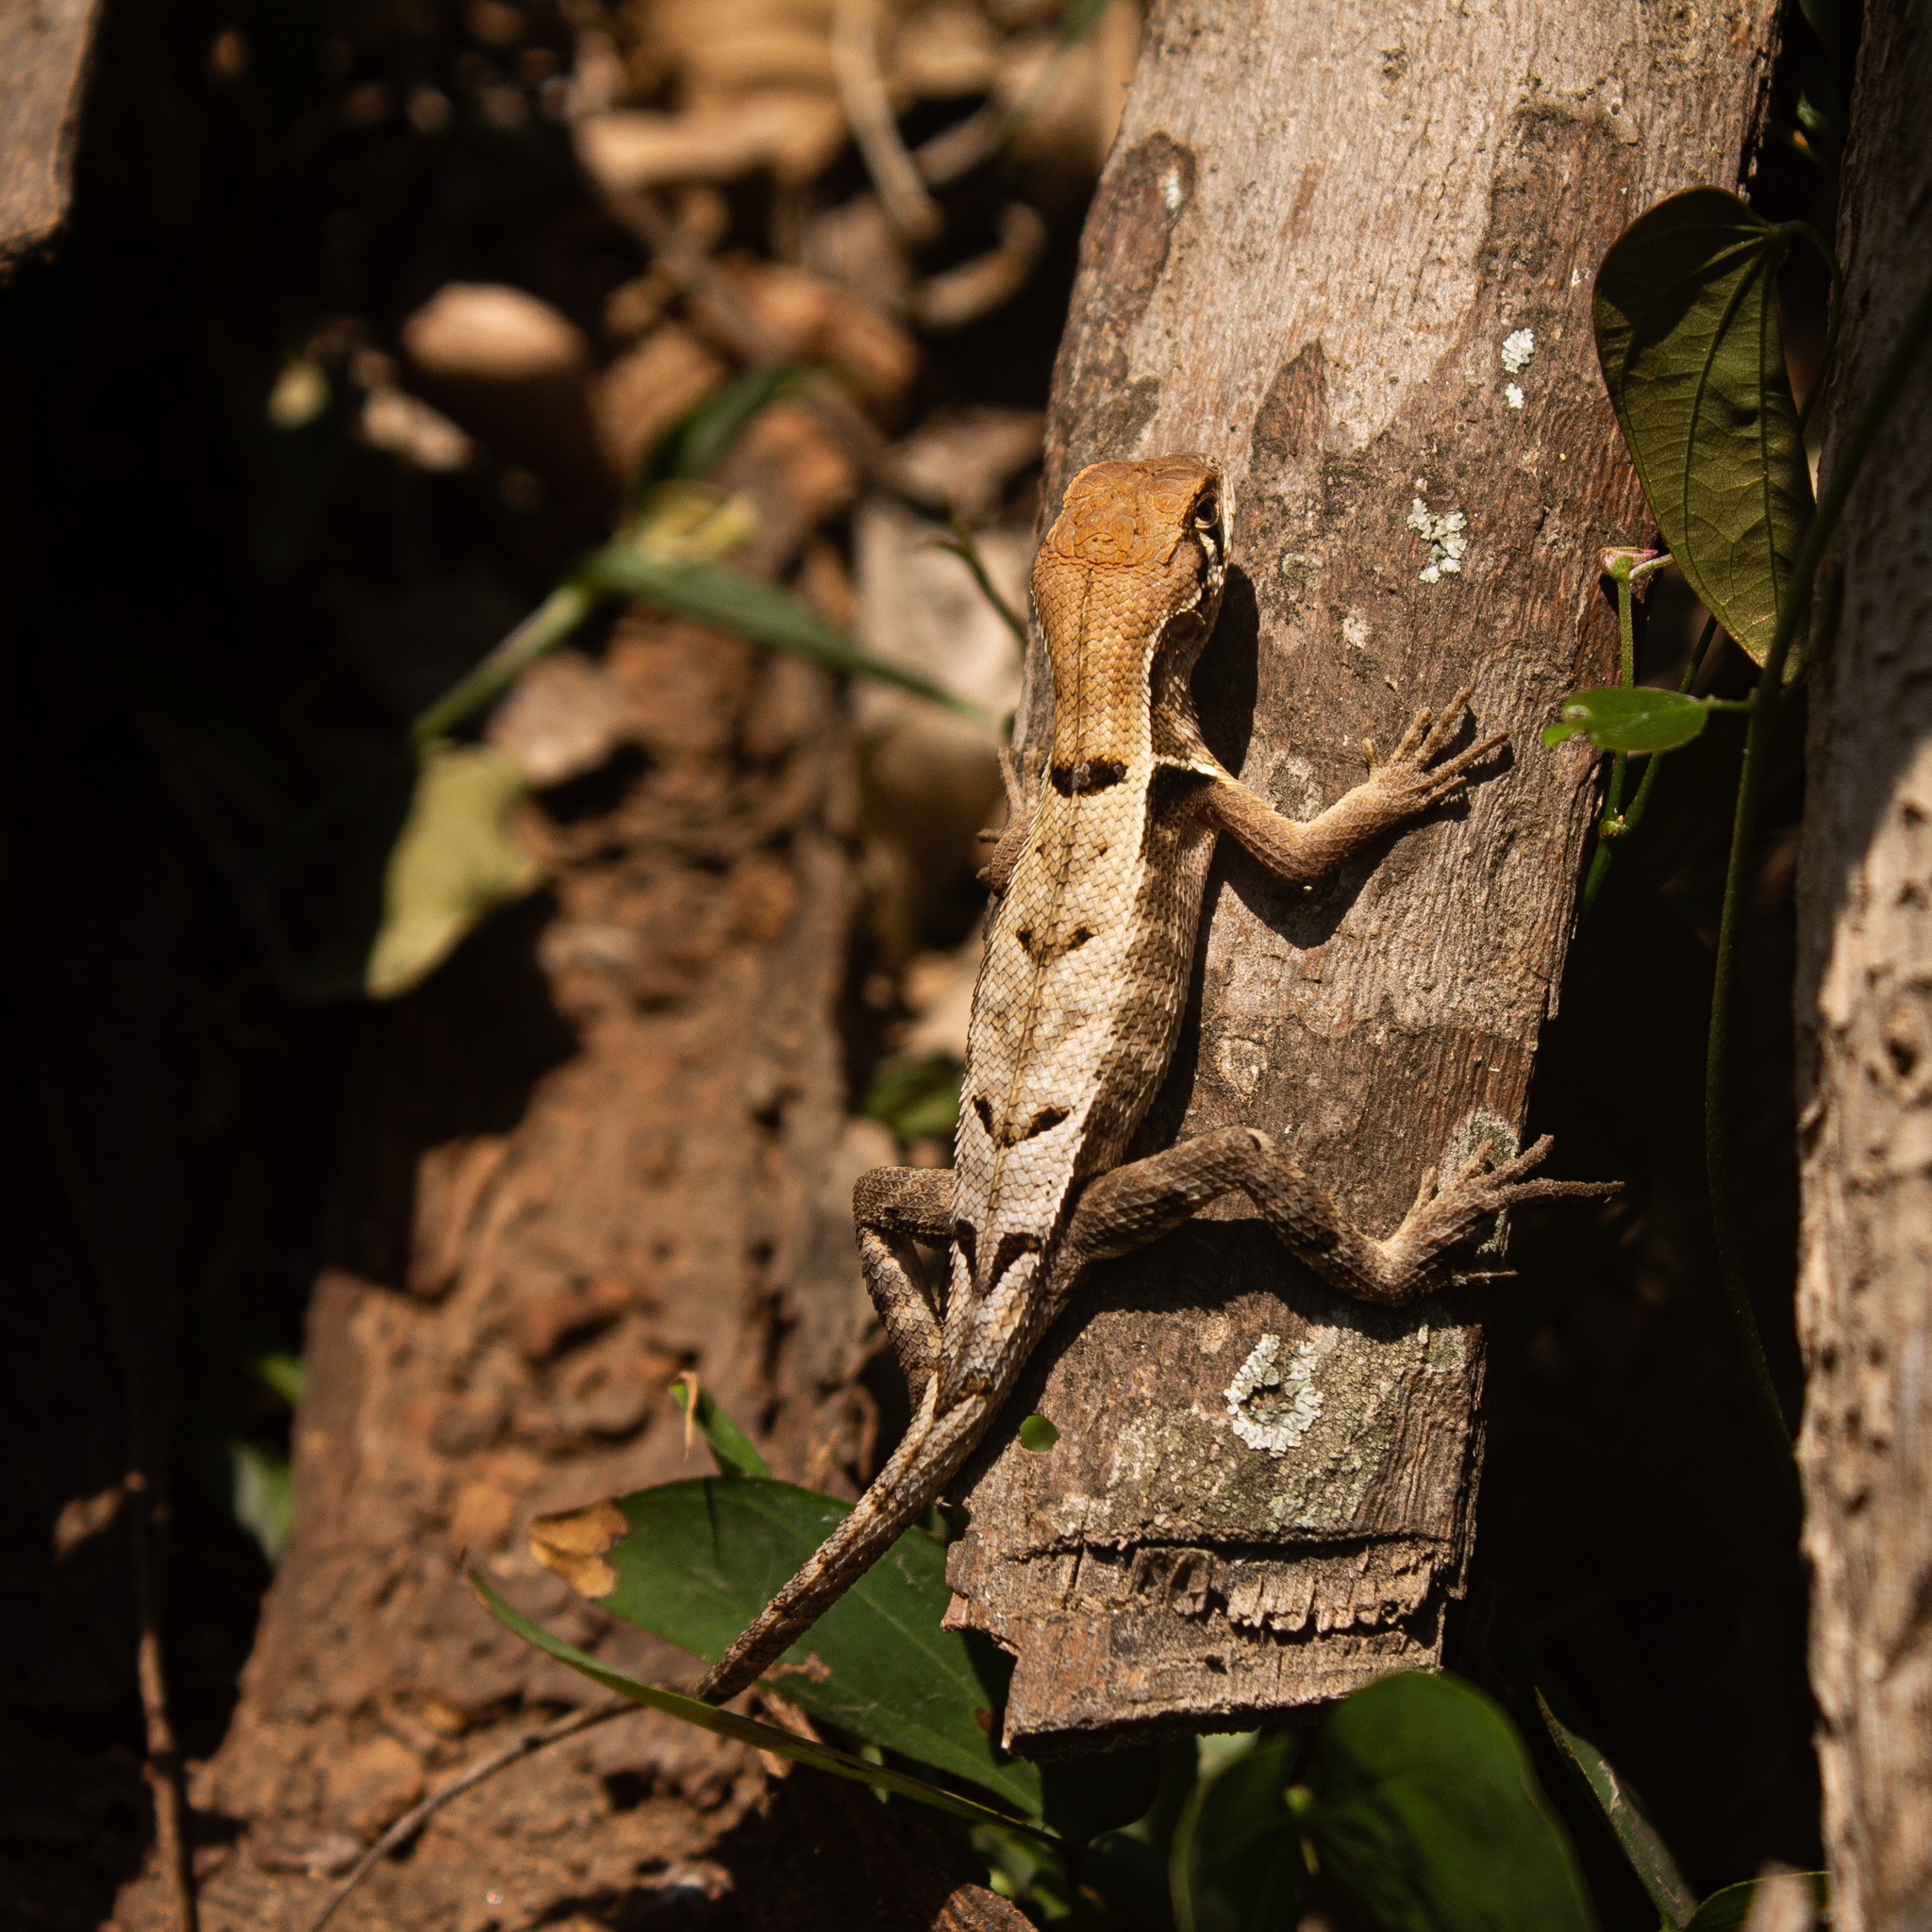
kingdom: Animalia
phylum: Chordata
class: Squamata
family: Tropiduridae
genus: Stenocercus
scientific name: Stenocercus erythrogaster
